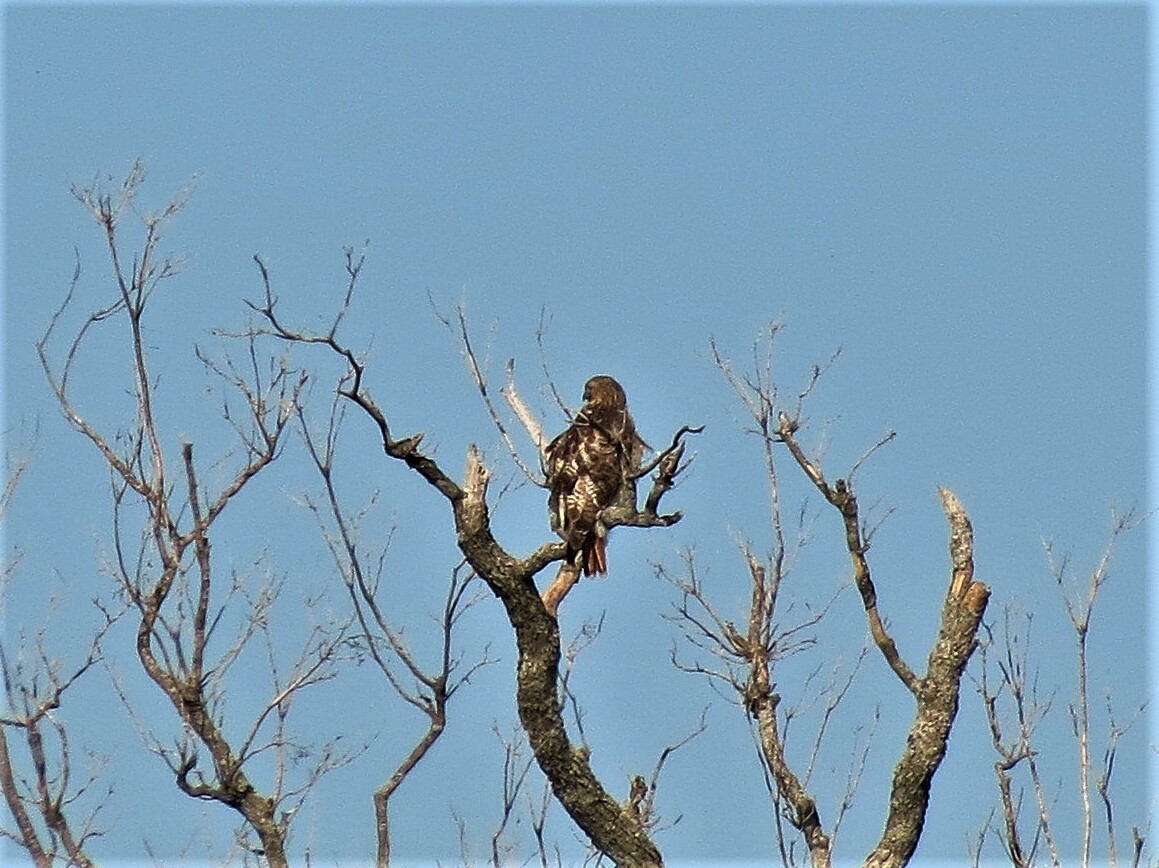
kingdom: Animalia
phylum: Chordata
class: Aves
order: Accipitriformes
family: Accipitridae
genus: Buteo
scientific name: Buteo jamaicensis
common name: Red-tailed hawk
